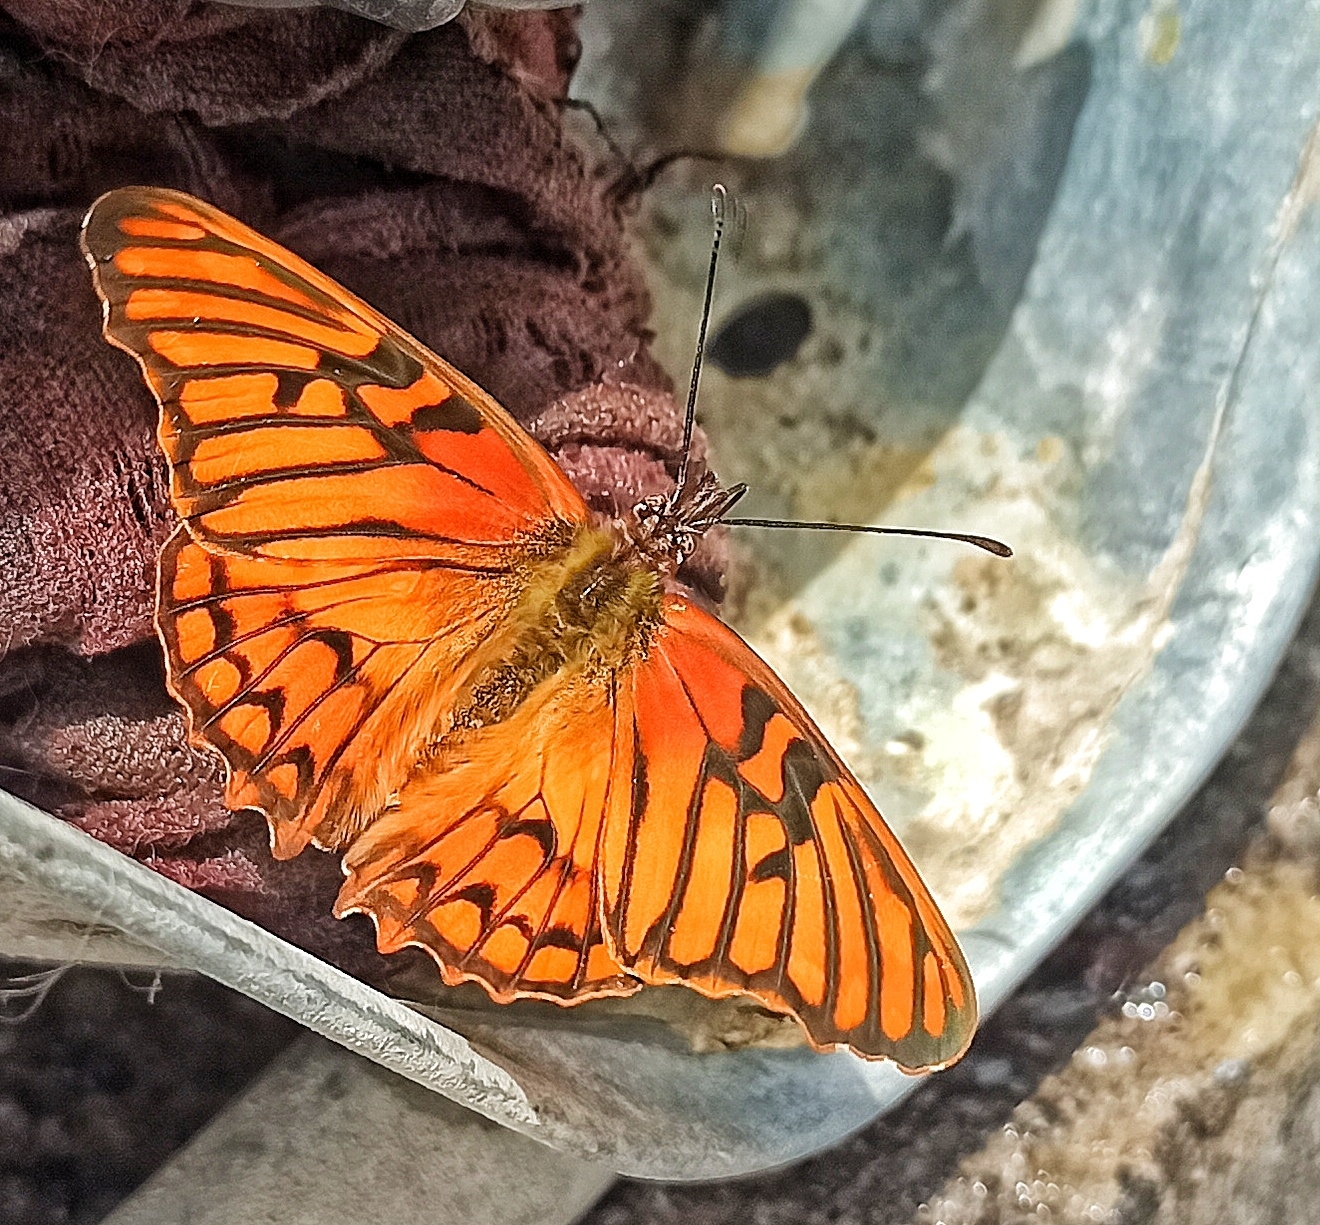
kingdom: Animalia
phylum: Arthropoda
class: Insecta
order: Lepidoptera
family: Nymphalidae
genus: Dione
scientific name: Dione glycera
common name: Andean silverspot
